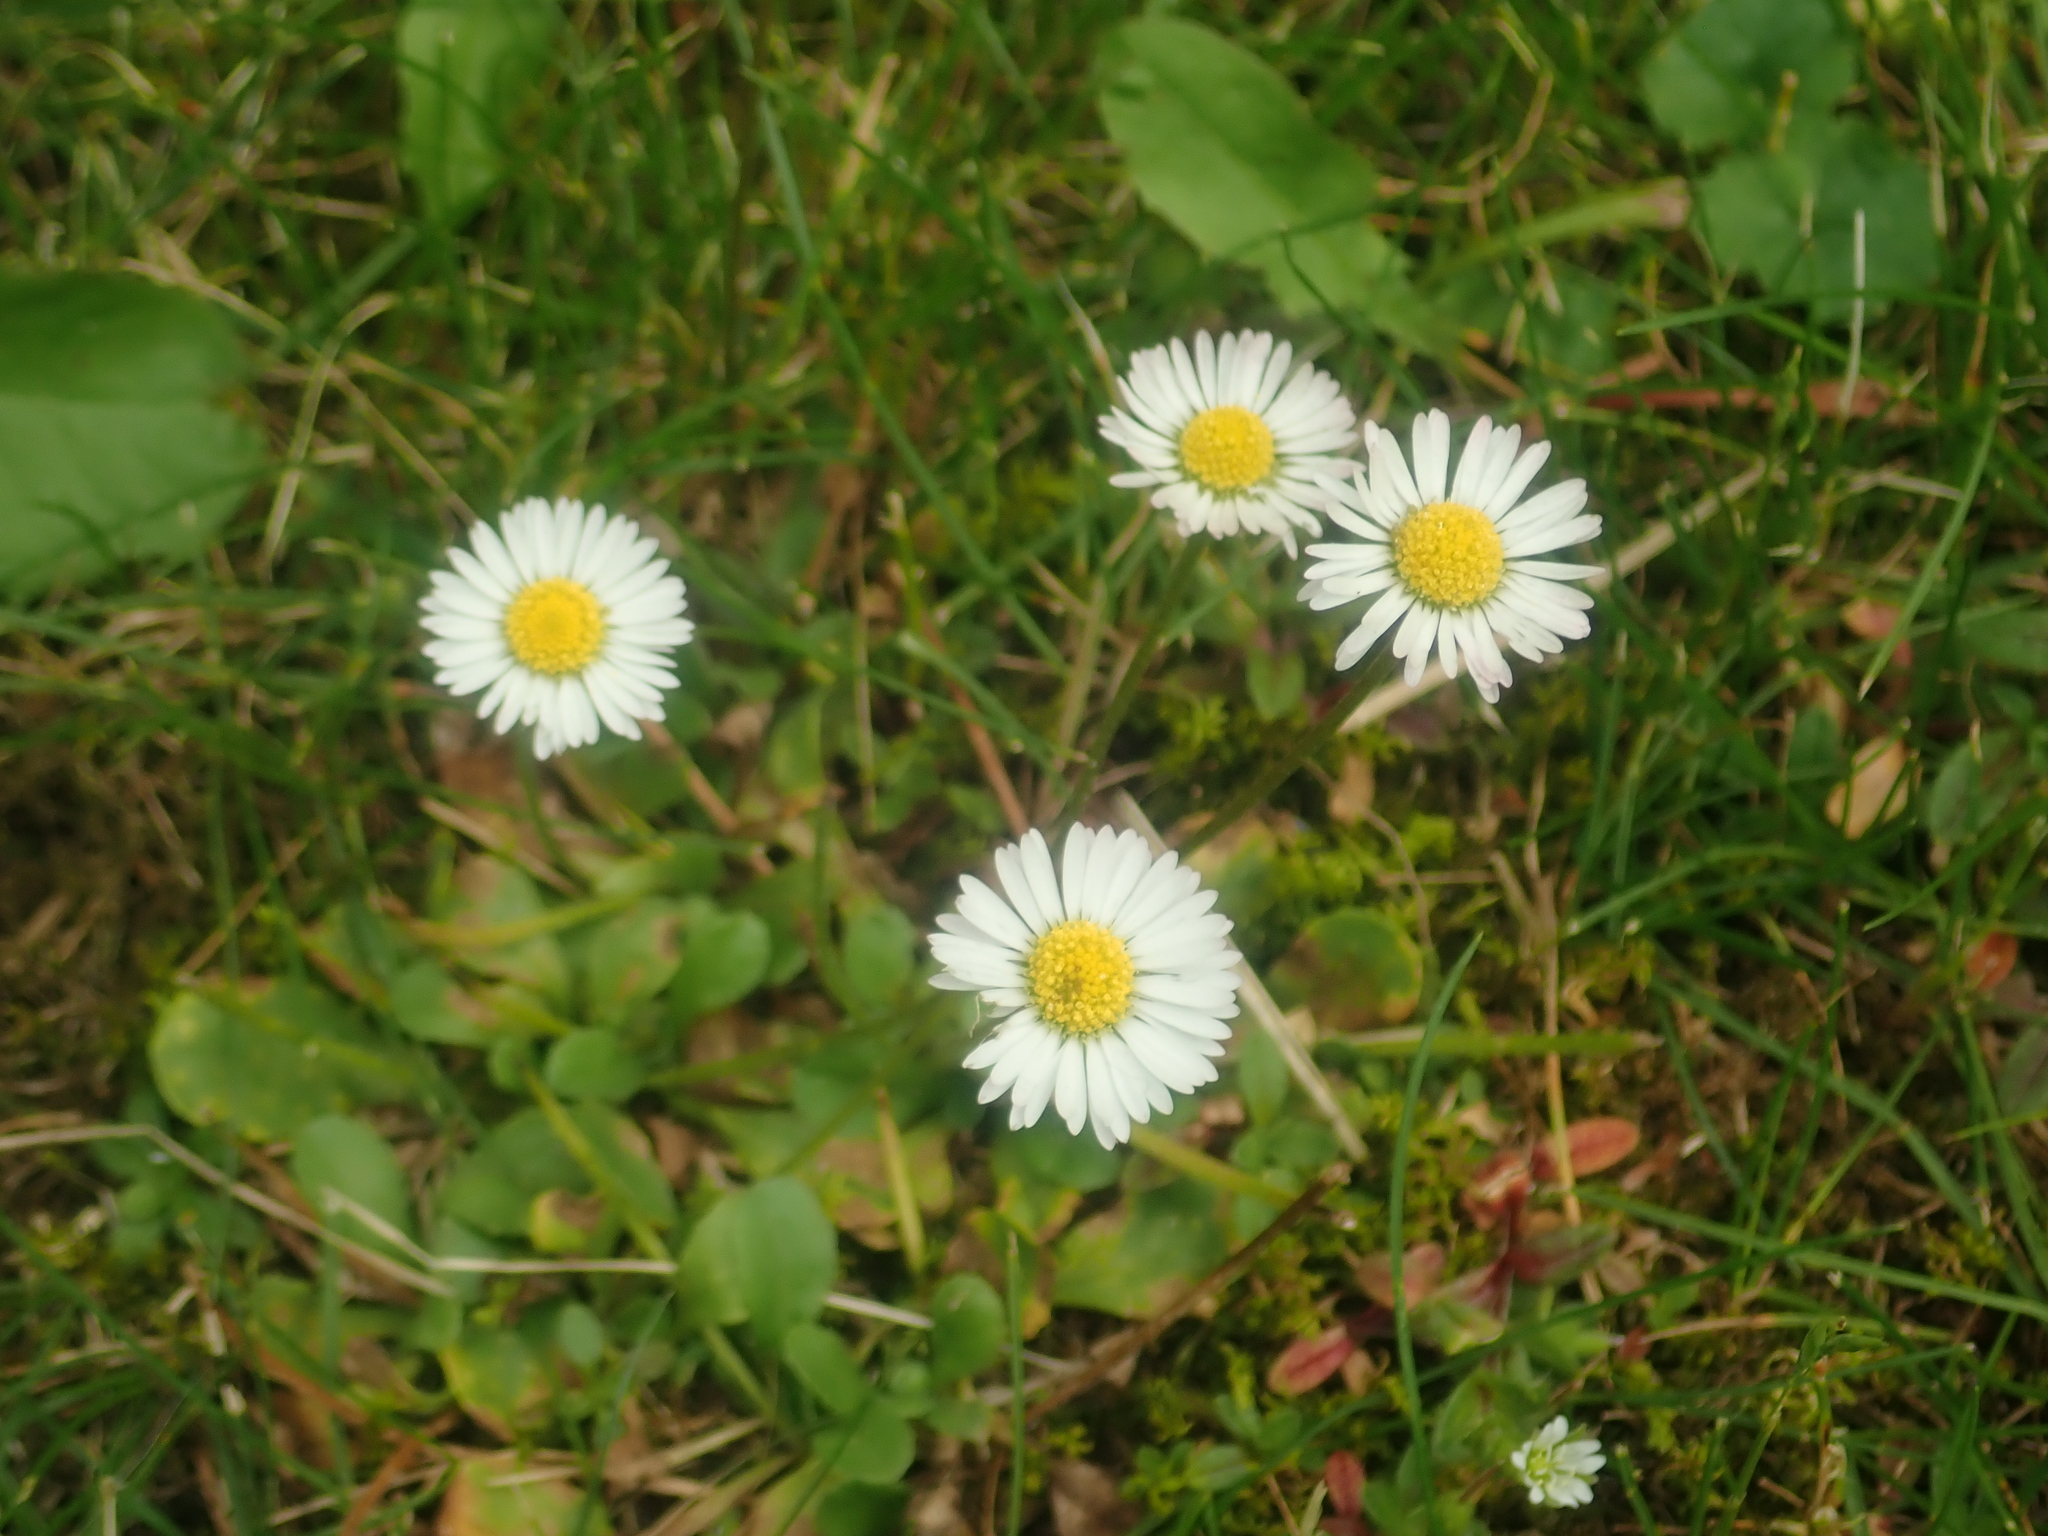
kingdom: Plantae
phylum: Tracheophyta
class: Magnoliopsida
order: Asterales
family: Asteraceae
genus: Bellis
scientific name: Bellis perennis
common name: Lawndaisy
